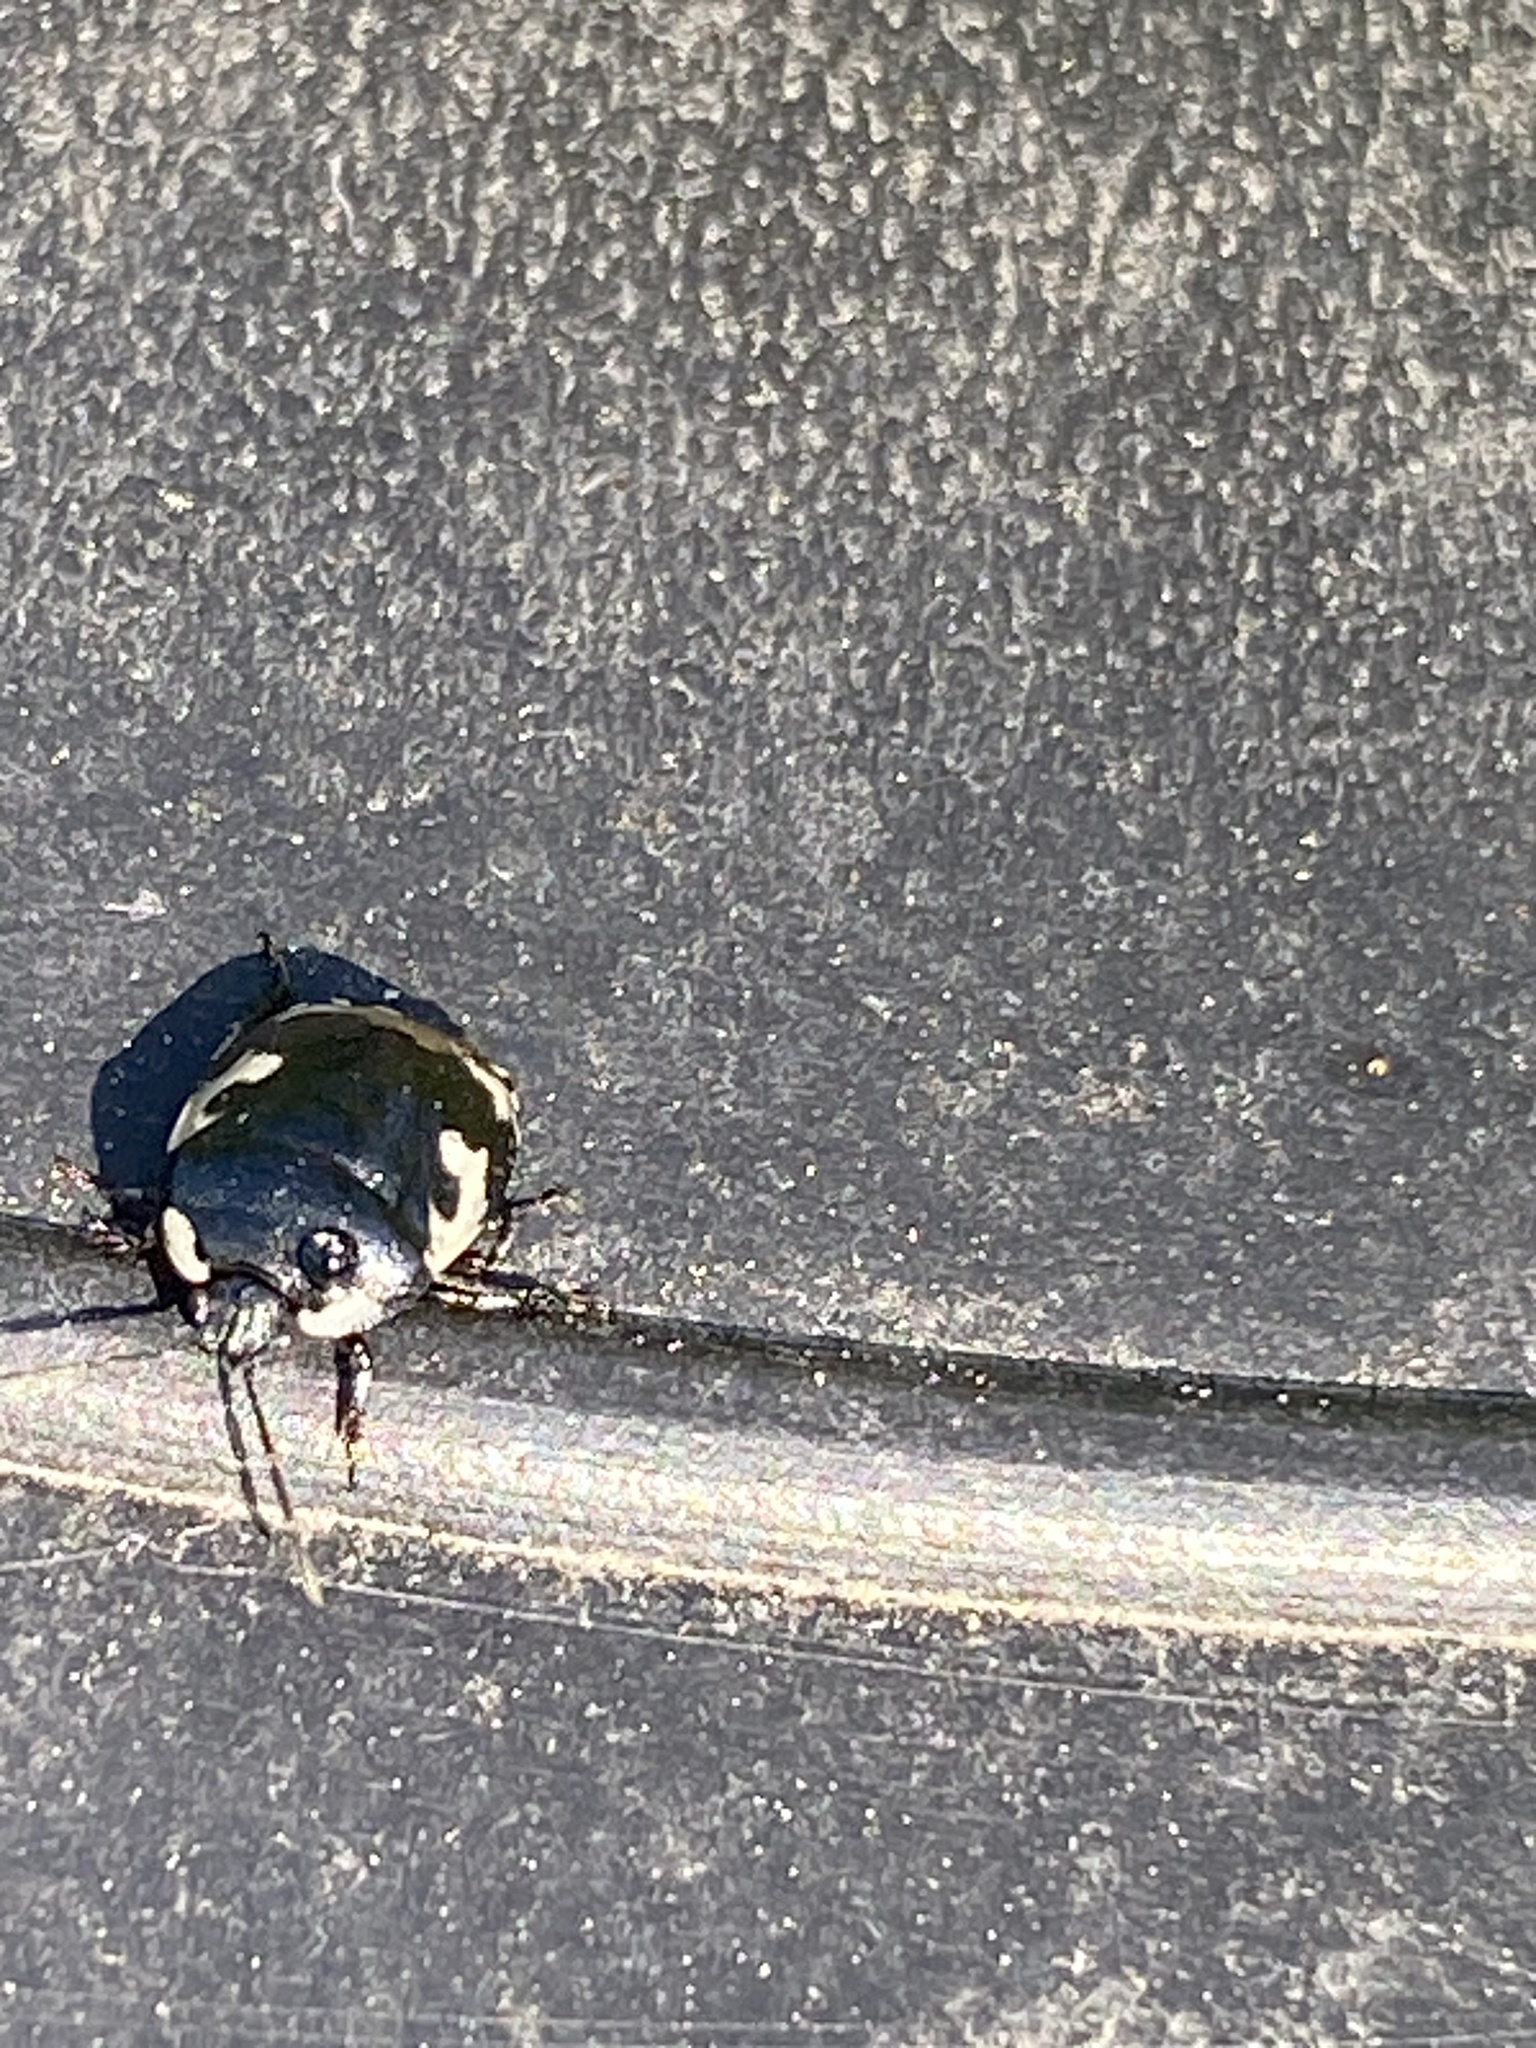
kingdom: Animalia
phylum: Arthropoda
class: Insecta
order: Hemiptera
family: Cydnidae
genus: Tritomegas
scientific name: Tritomegas bicolor
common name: Pied shieldbug
